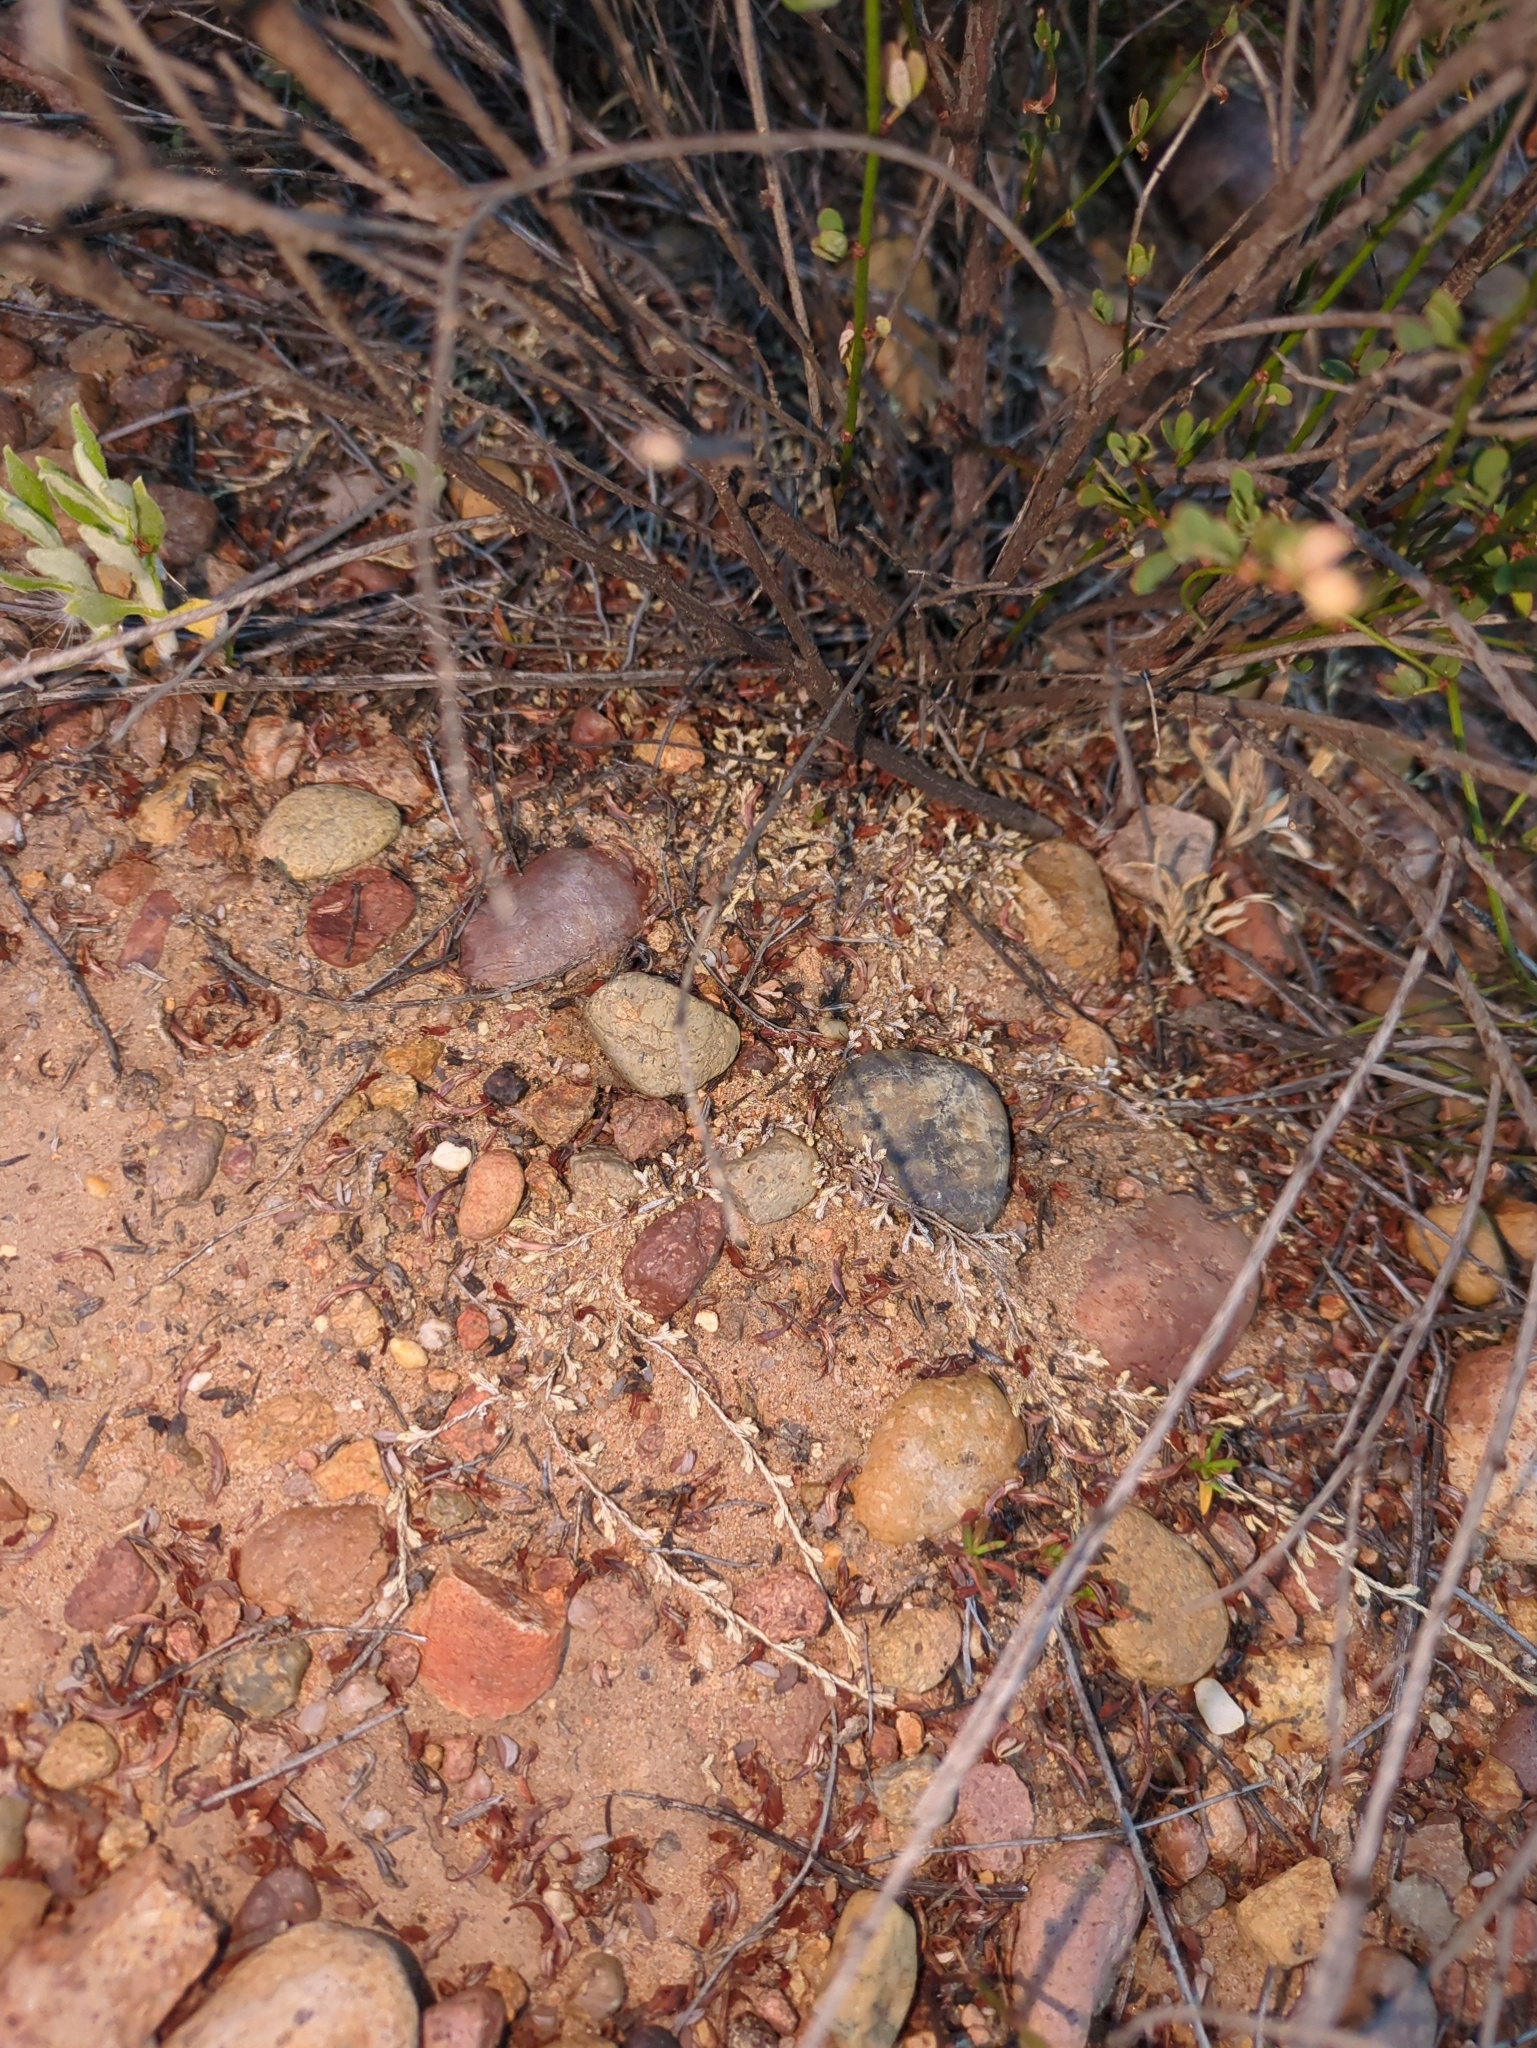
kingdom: Plantae
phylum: Tracheophyta
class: Lycopodiopsida
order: Selaginellales
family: Selaginellaceae
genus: Selaginella
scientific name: Selaginella cinerascens
